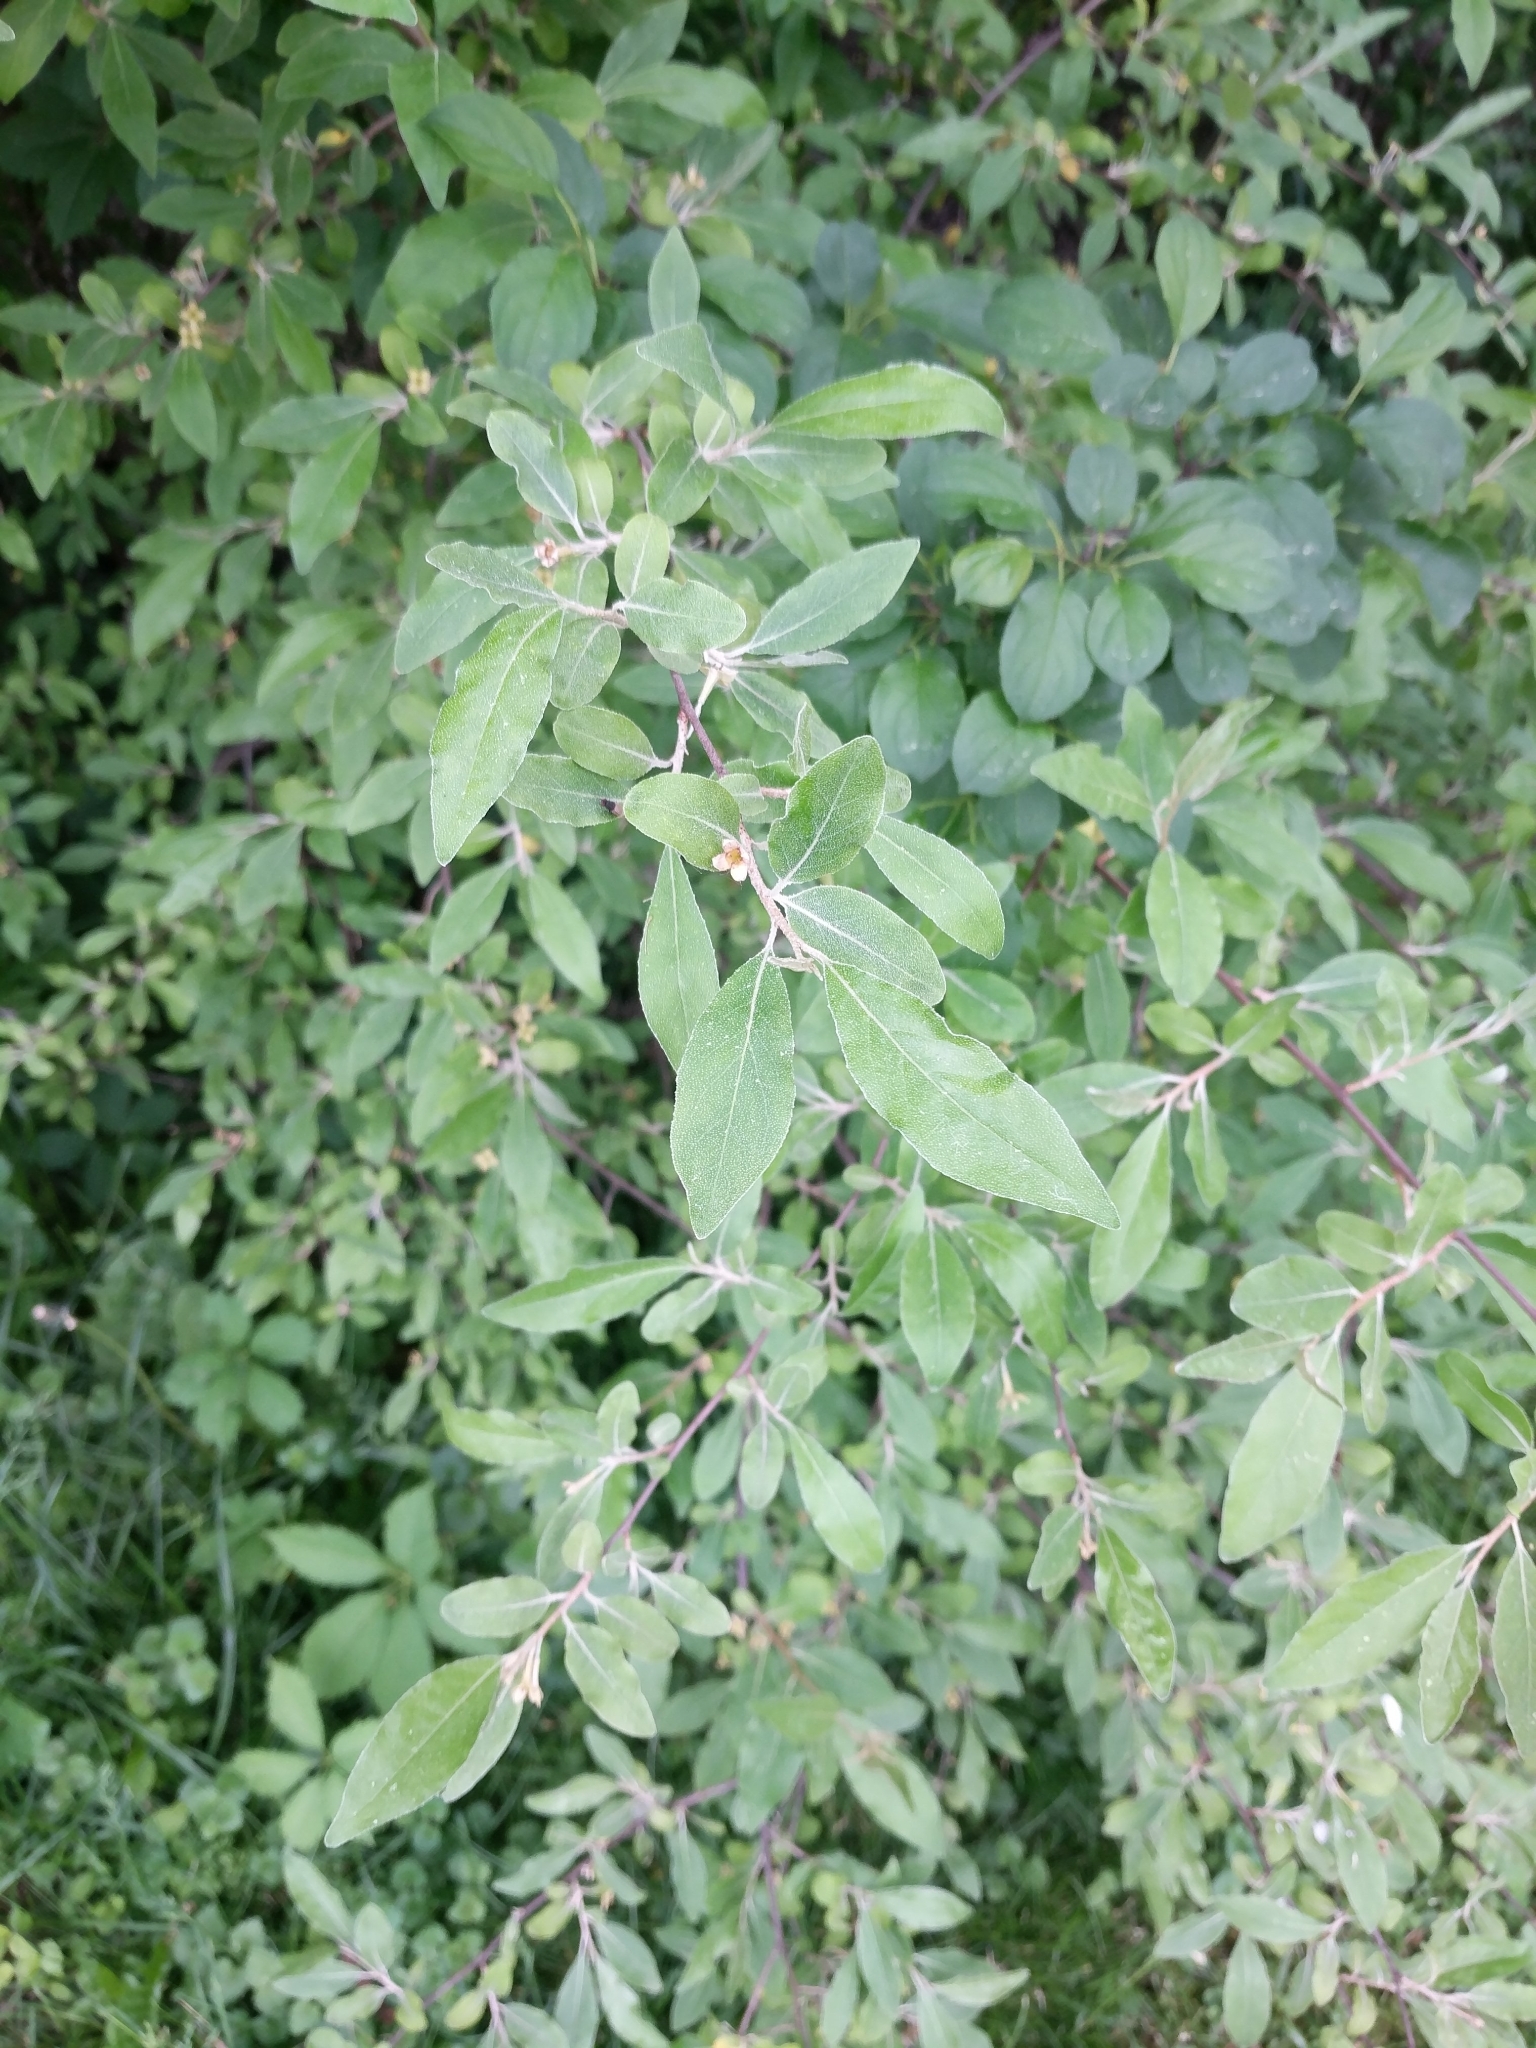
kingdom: Plantae
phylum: Tracheophyta
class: Magnoliopsida
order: Rosales
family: Elaeagnaceae
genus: Elaeagnus
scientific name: Elaeagnus umbellata
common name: Autumn olive
